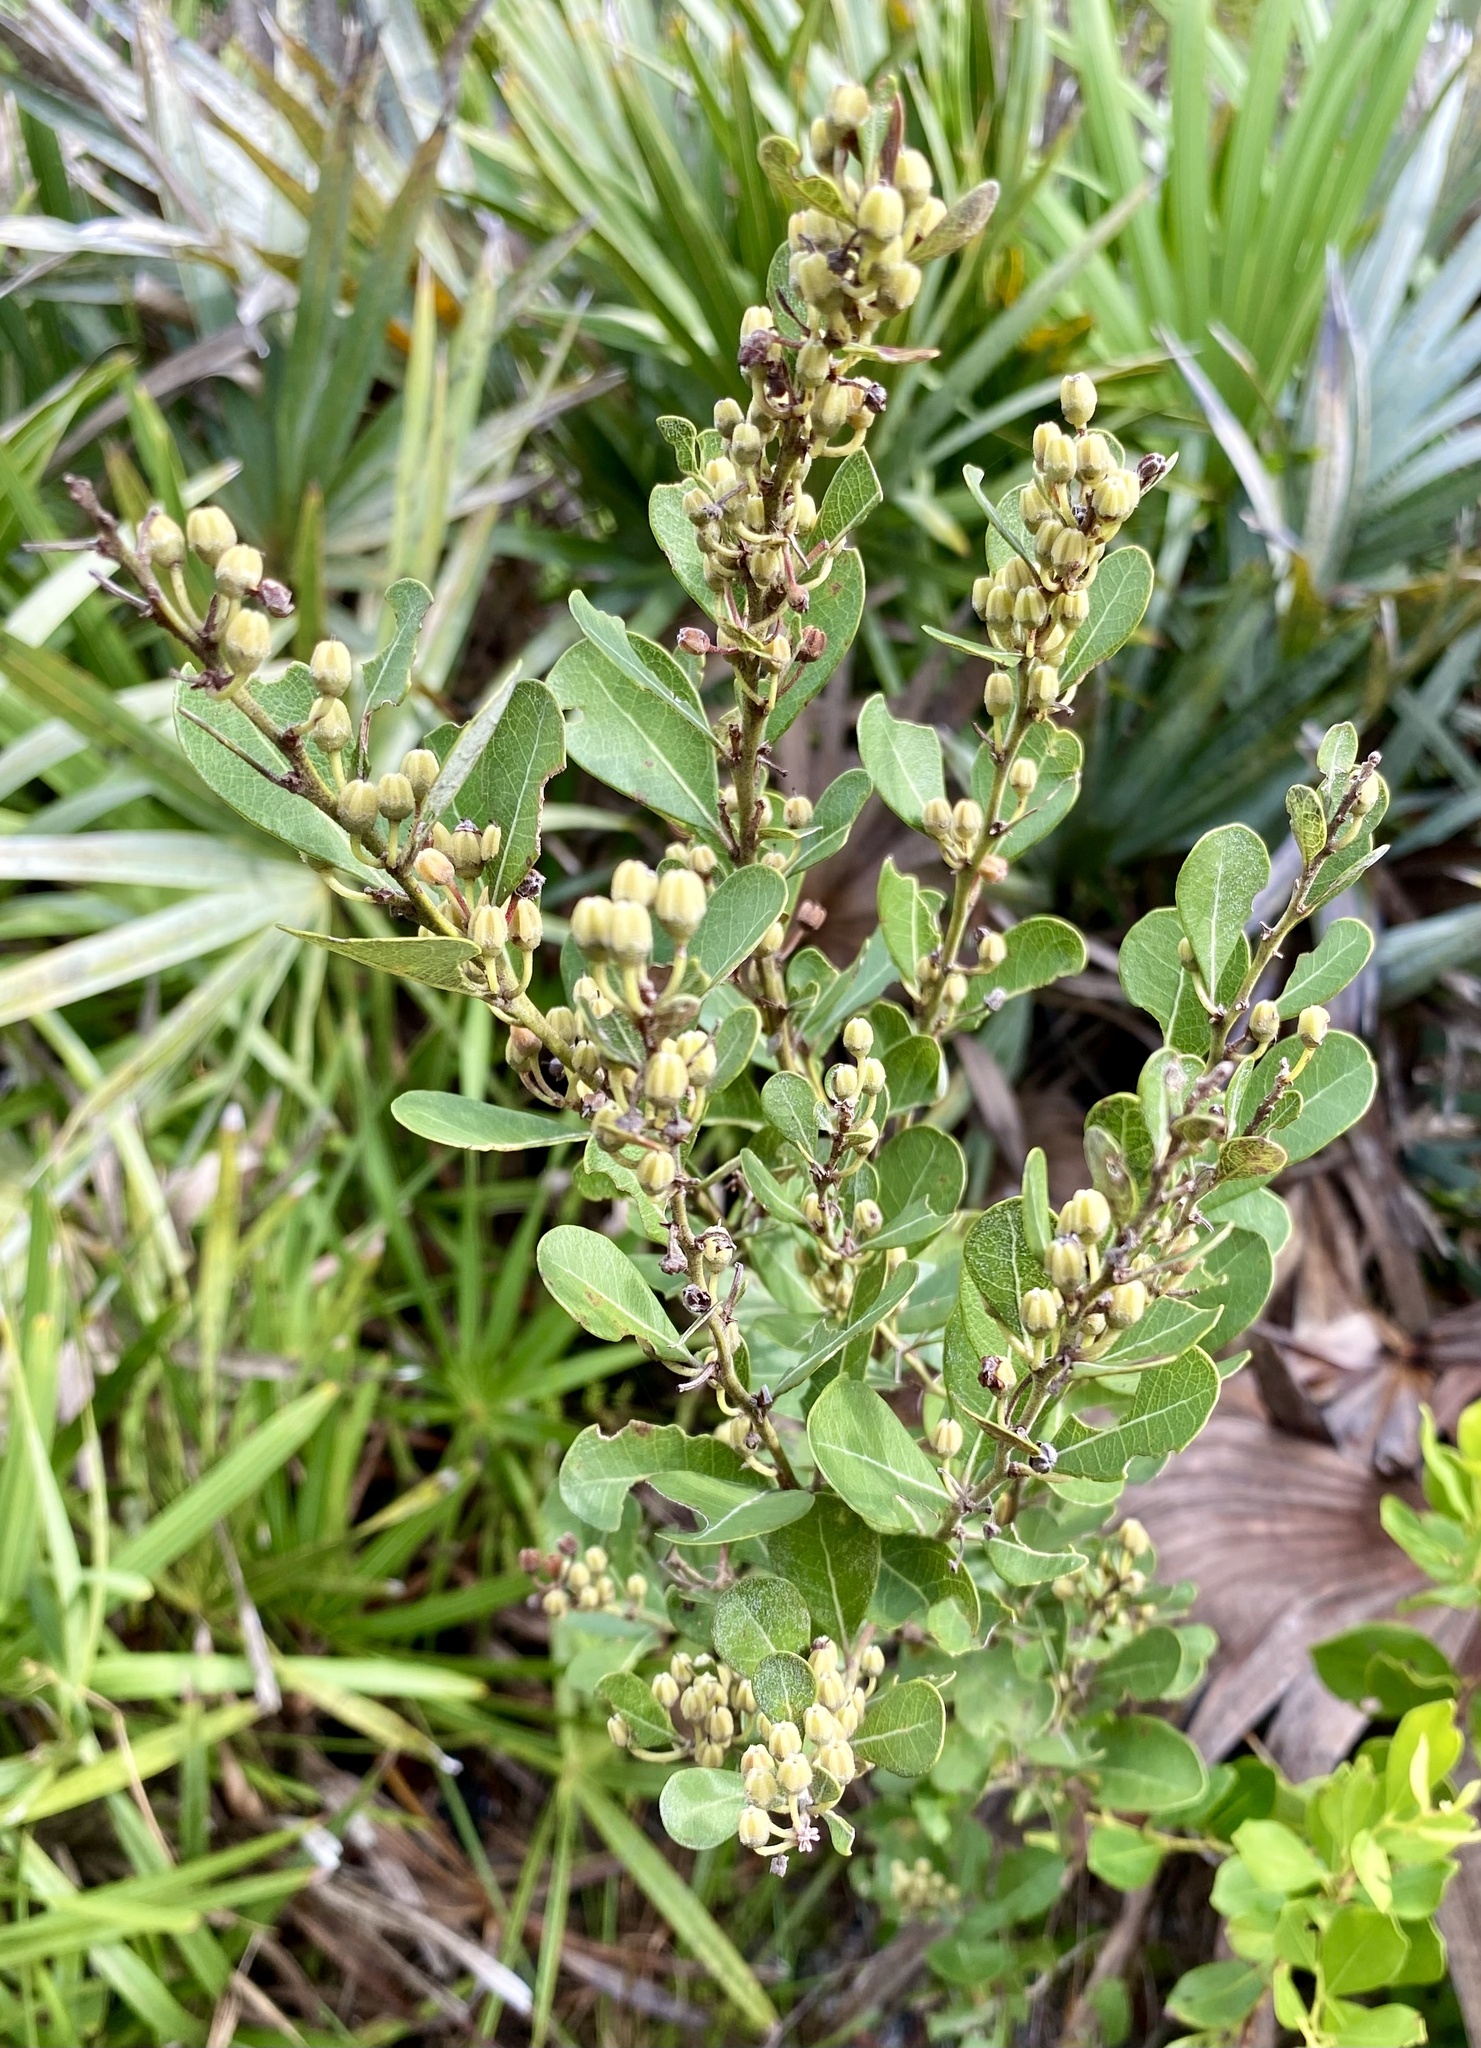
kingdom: Plantae
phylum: Tracheophyta
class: Magnoliopsida
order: Ericales
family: Ericaceae
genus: Lyonia
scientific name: Lyonia fruticosa
